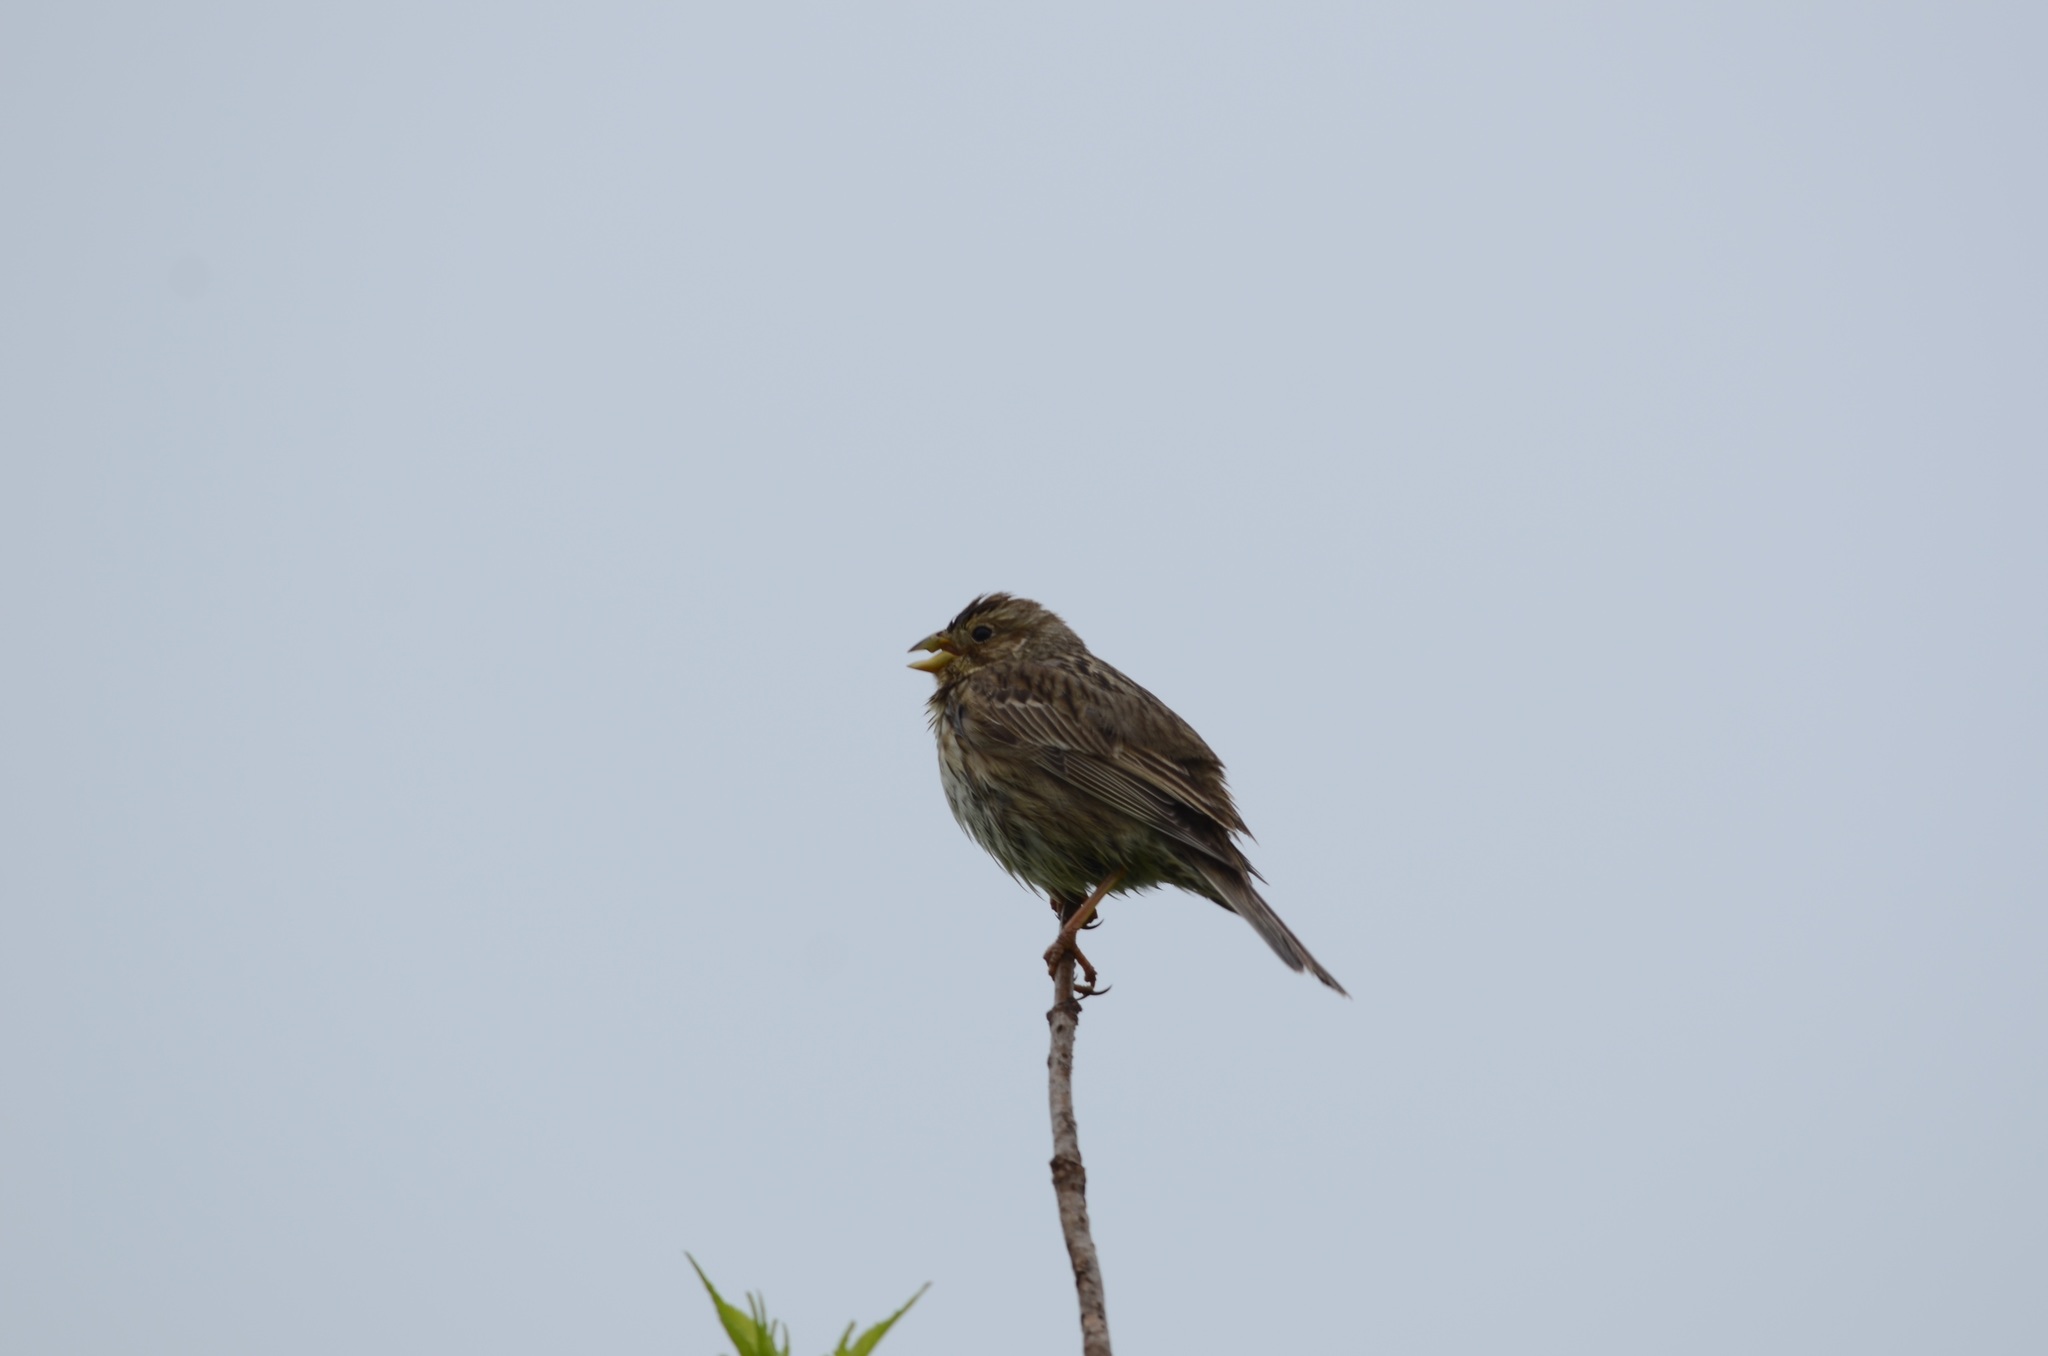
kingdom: Animalia
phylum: Chordata
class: Aves
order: Passeriformes
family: Emberizidae
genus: Emberiza
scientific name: Emberiza calandra
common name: Corn bunting
